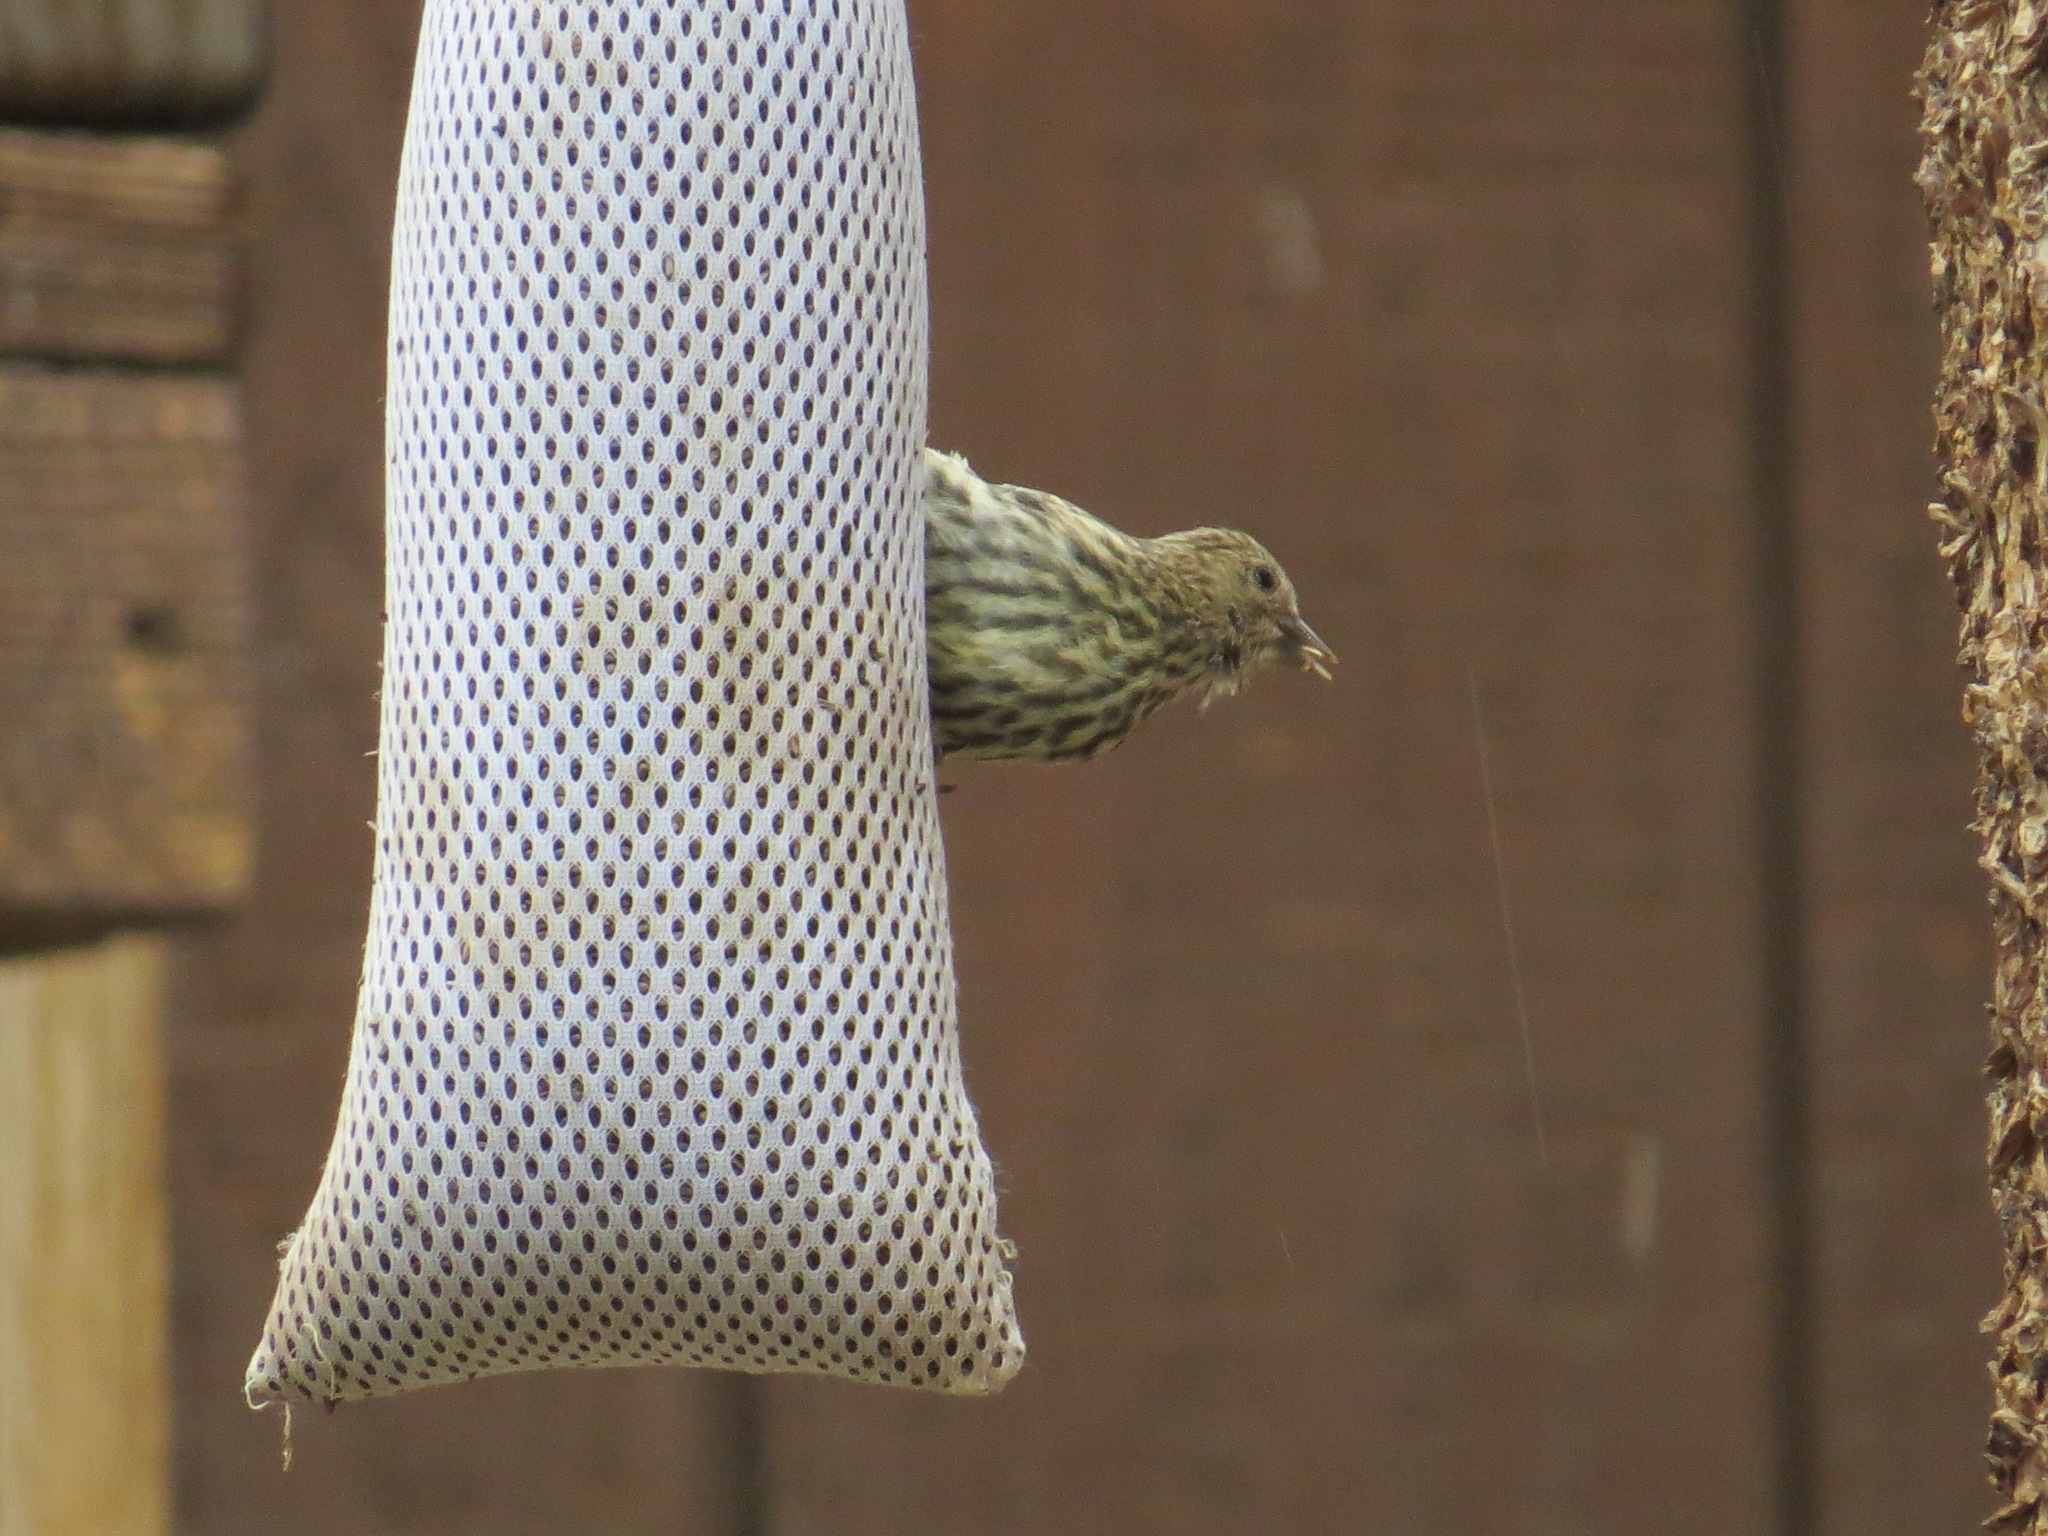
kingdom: Animalia
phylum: Chordata
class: Aves
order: Passeriformes
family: Fringillidae
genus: Spinus
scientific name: Spinus pinus
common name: Pine siskin
